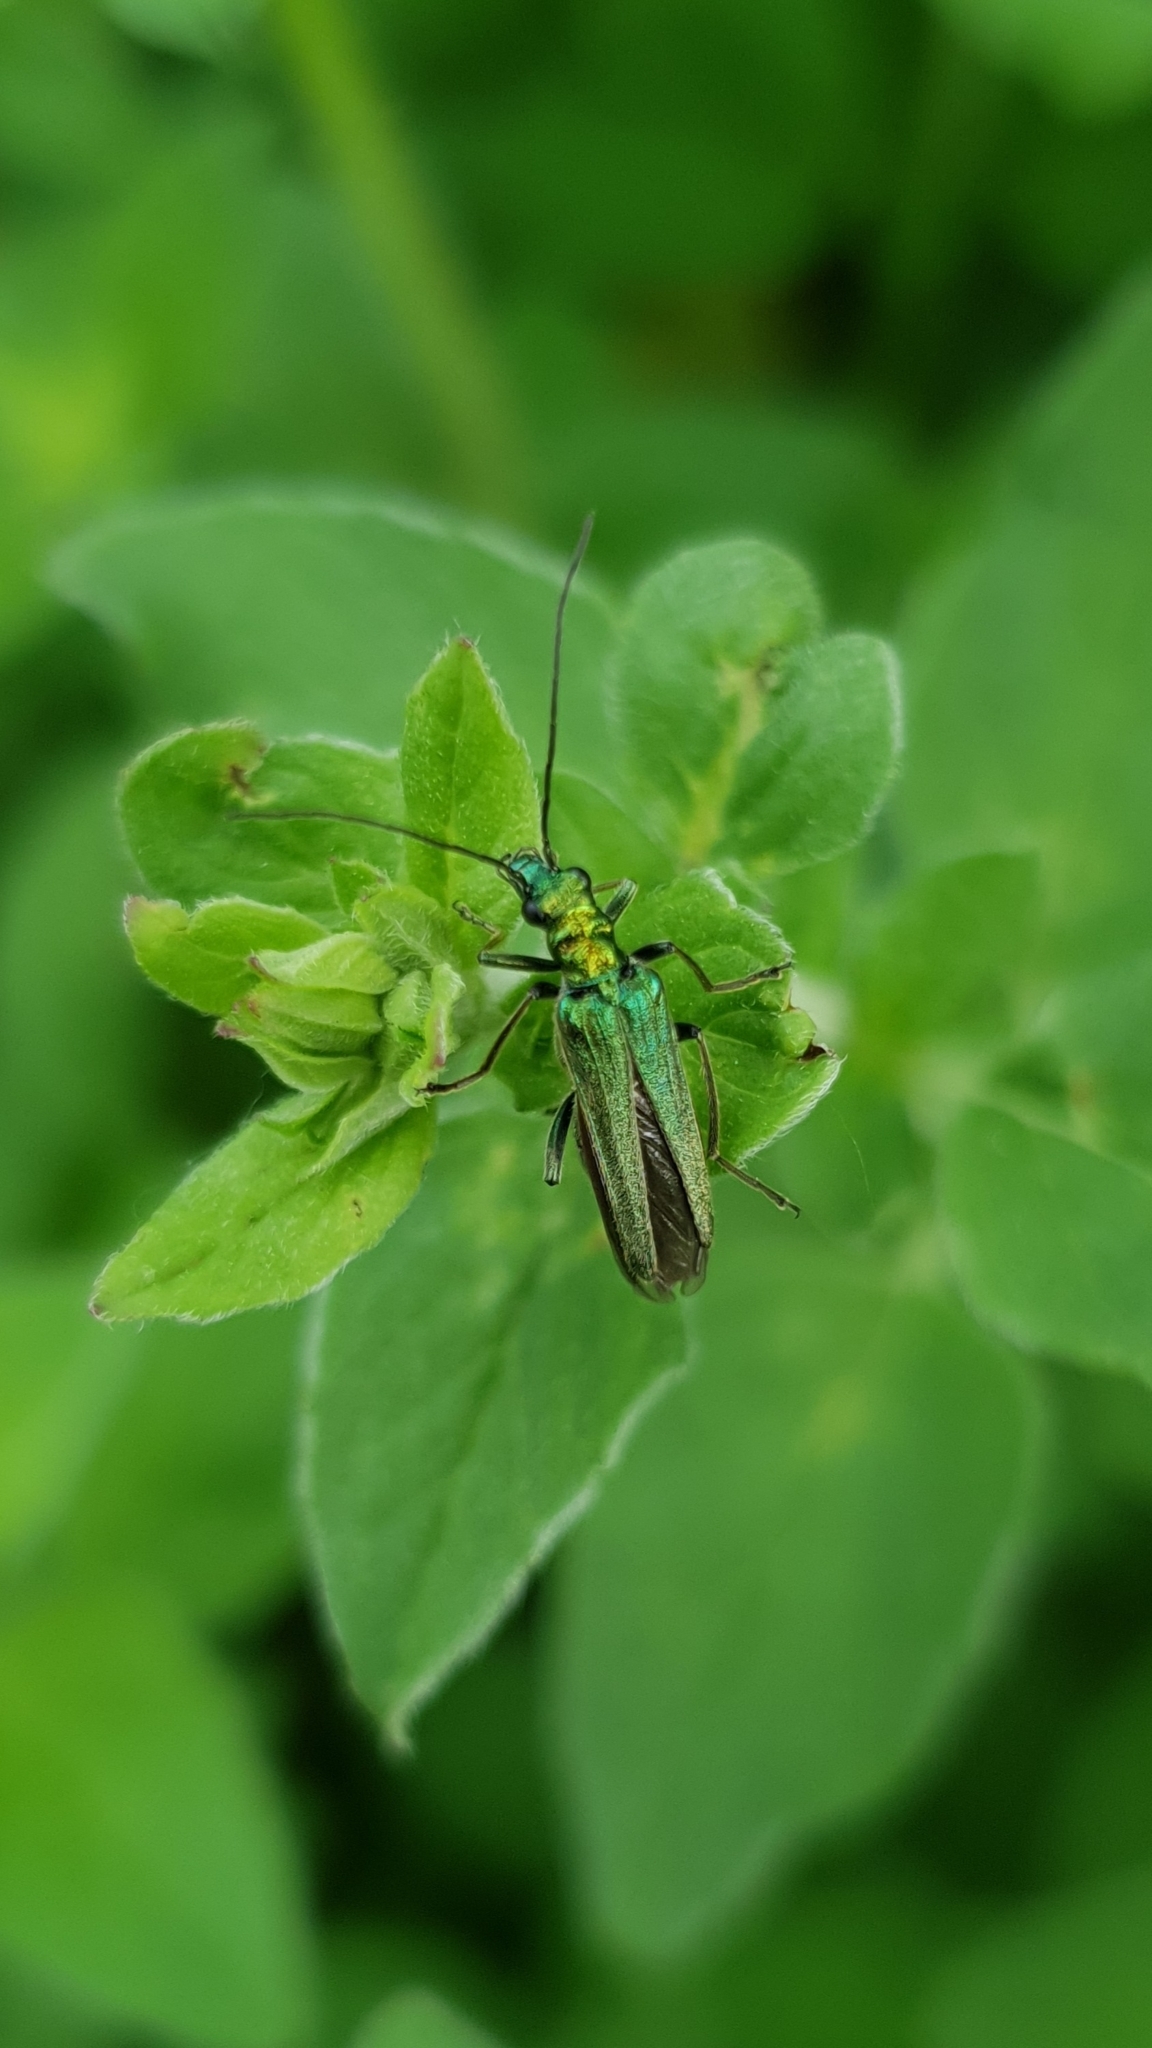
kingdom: Animalia
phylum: Arthropoda
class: Insecta
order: Coleoptera
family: Oedemeridae
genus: Oedemera
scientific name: Oedemera nobilis
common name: Swollen-thighed beetle
